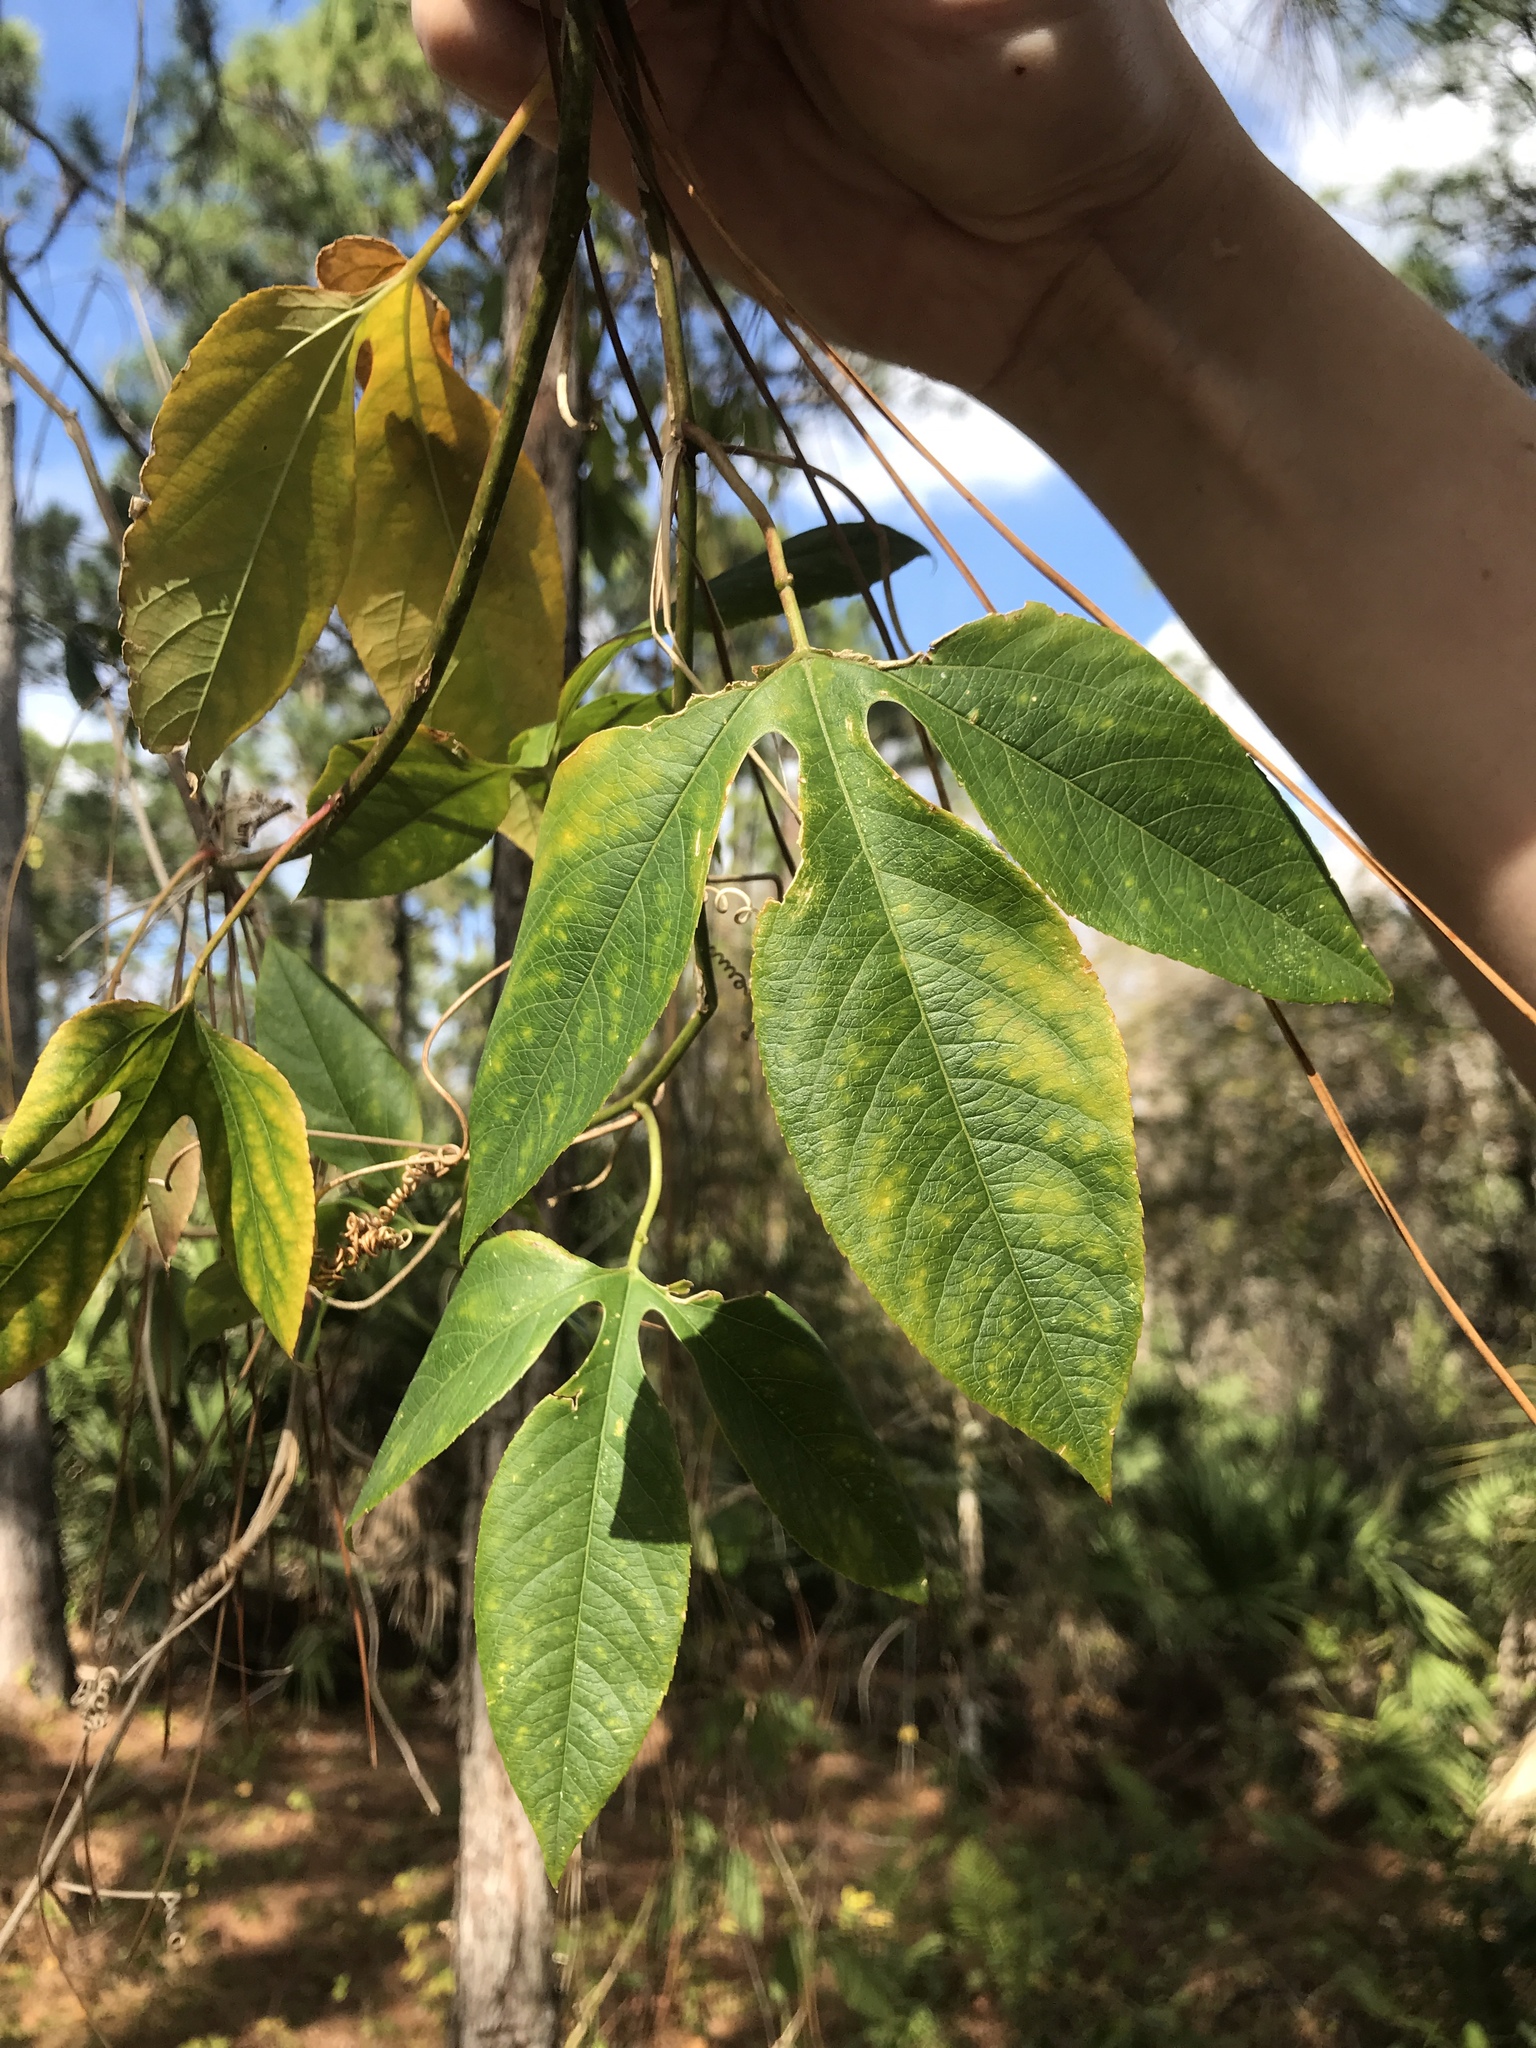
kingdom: Plantae
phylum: Tracheophyta
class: Magnoliopsida
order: Malpighiales
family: Passifloraceae
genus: Passiflora
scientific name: Passiflora incarnata
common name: Apricot-vine
